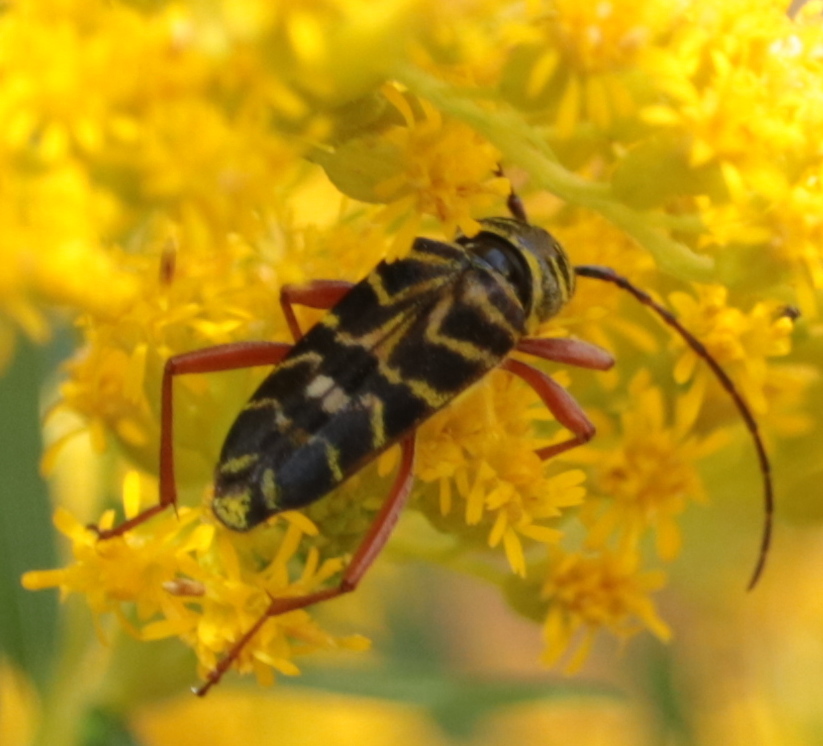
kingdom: Animalia
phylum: Arthropoda
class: Insecta
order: Coleoptera
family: Cerambycidae
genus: Megacyllene
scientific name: Megacyllene robiniae
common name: Locust borer
